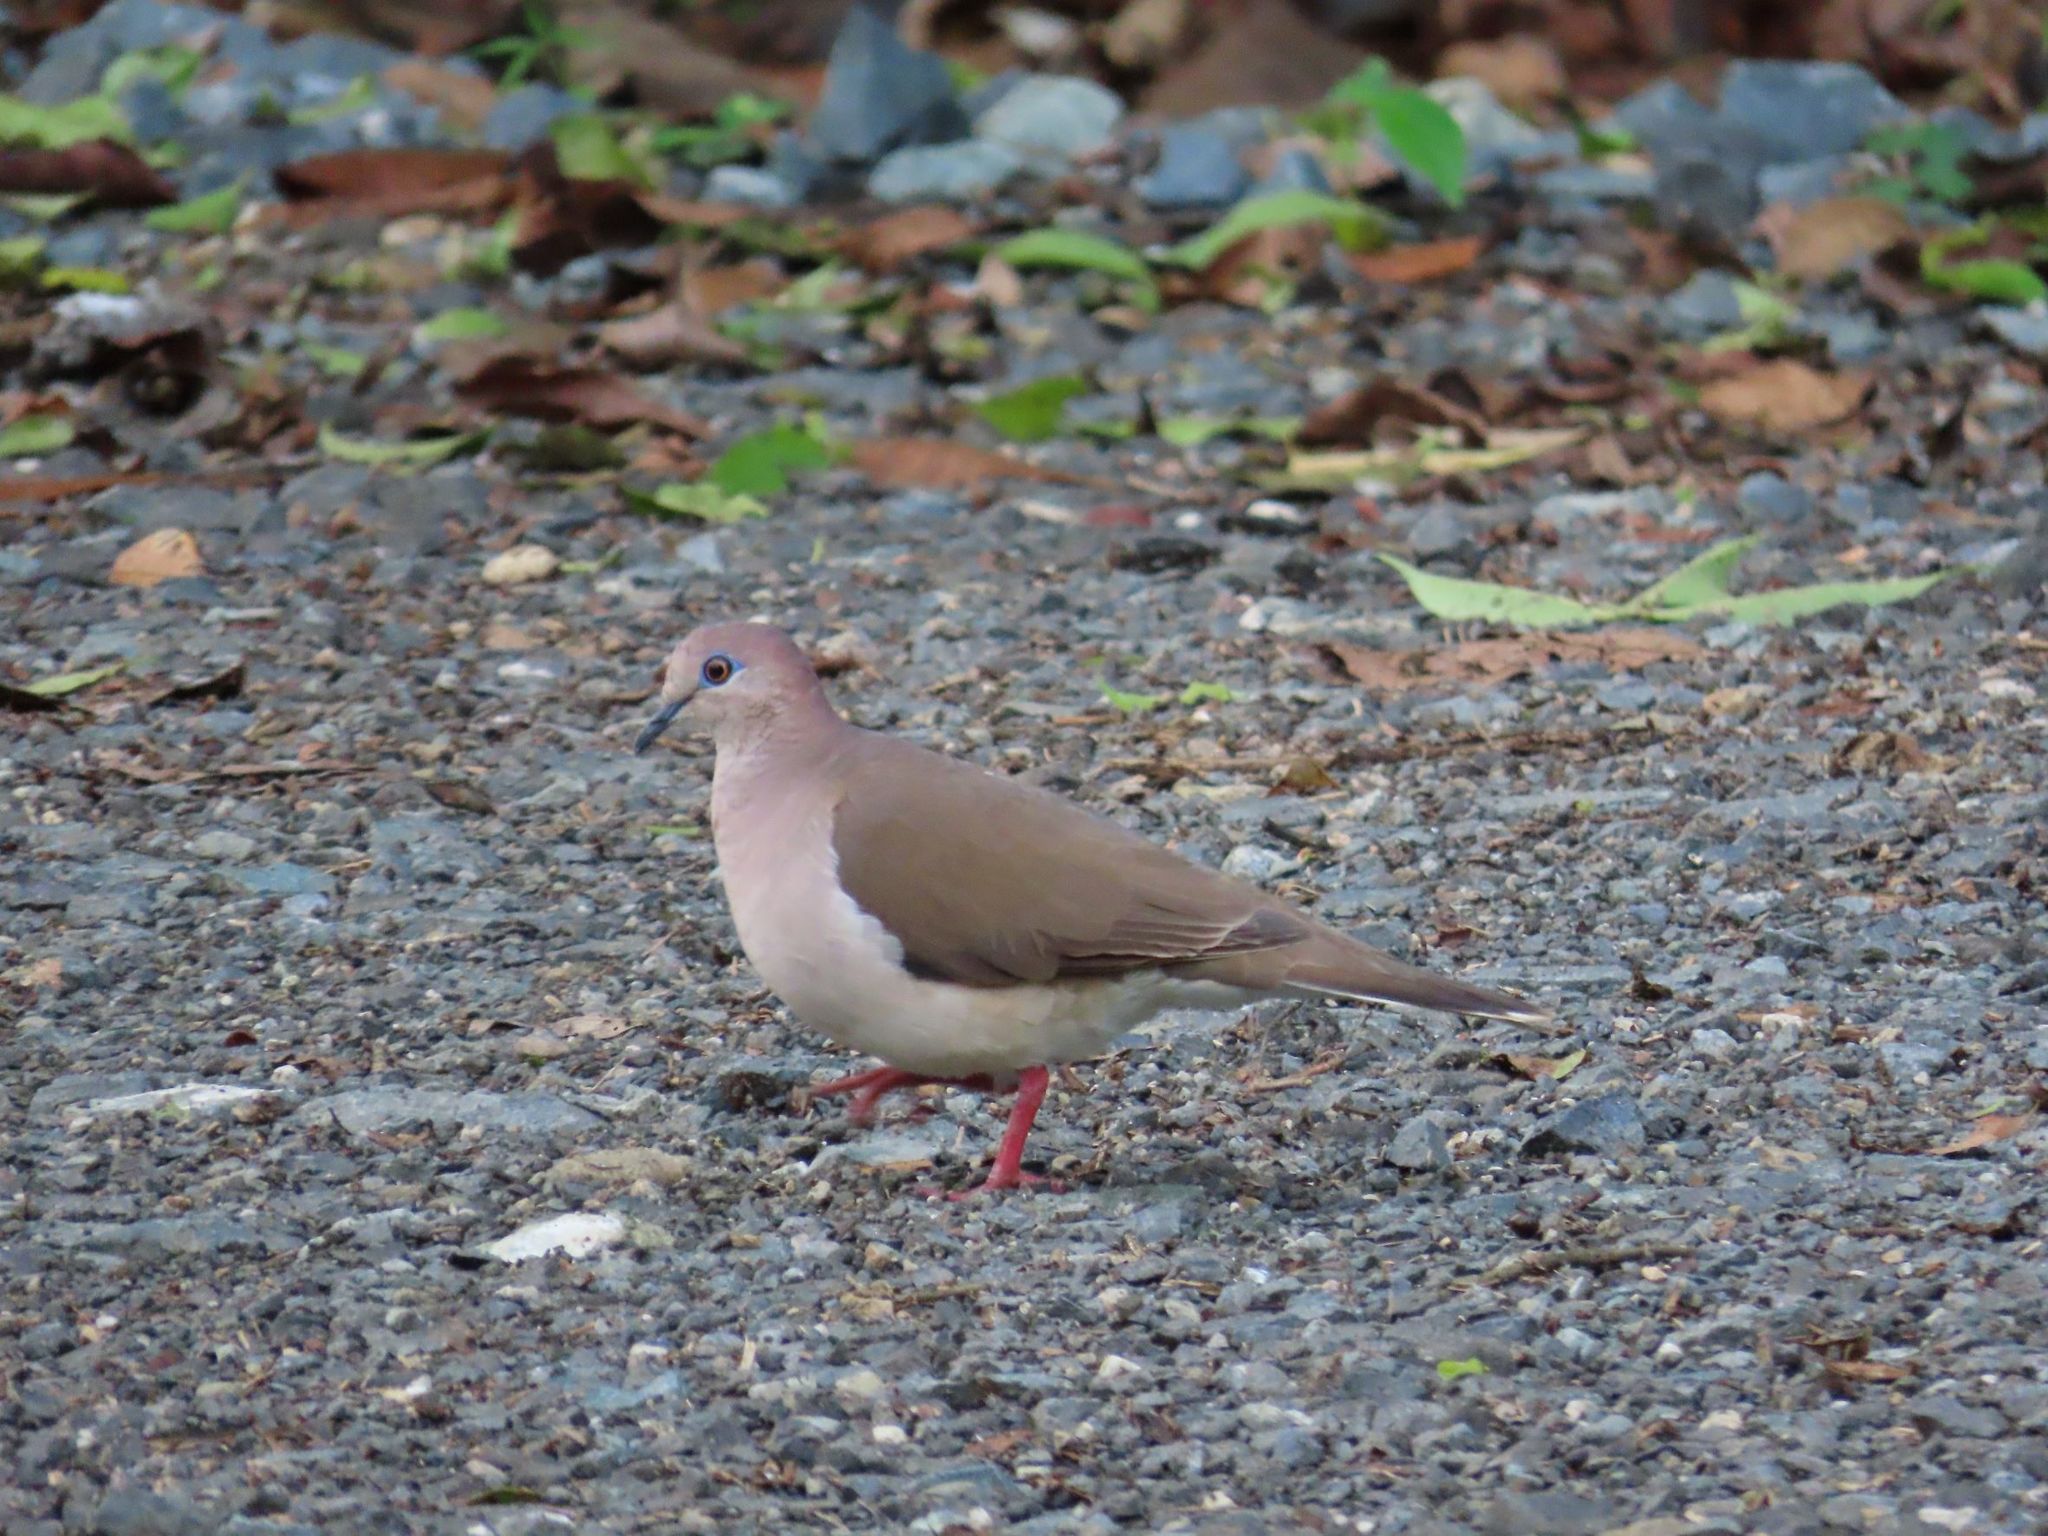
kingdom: Animalia
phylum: Chordata
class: Aves
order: Columbiformes
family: Columbidae
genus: Leptotila
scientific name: Leptotila verreauxi
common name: White-tipped dove
